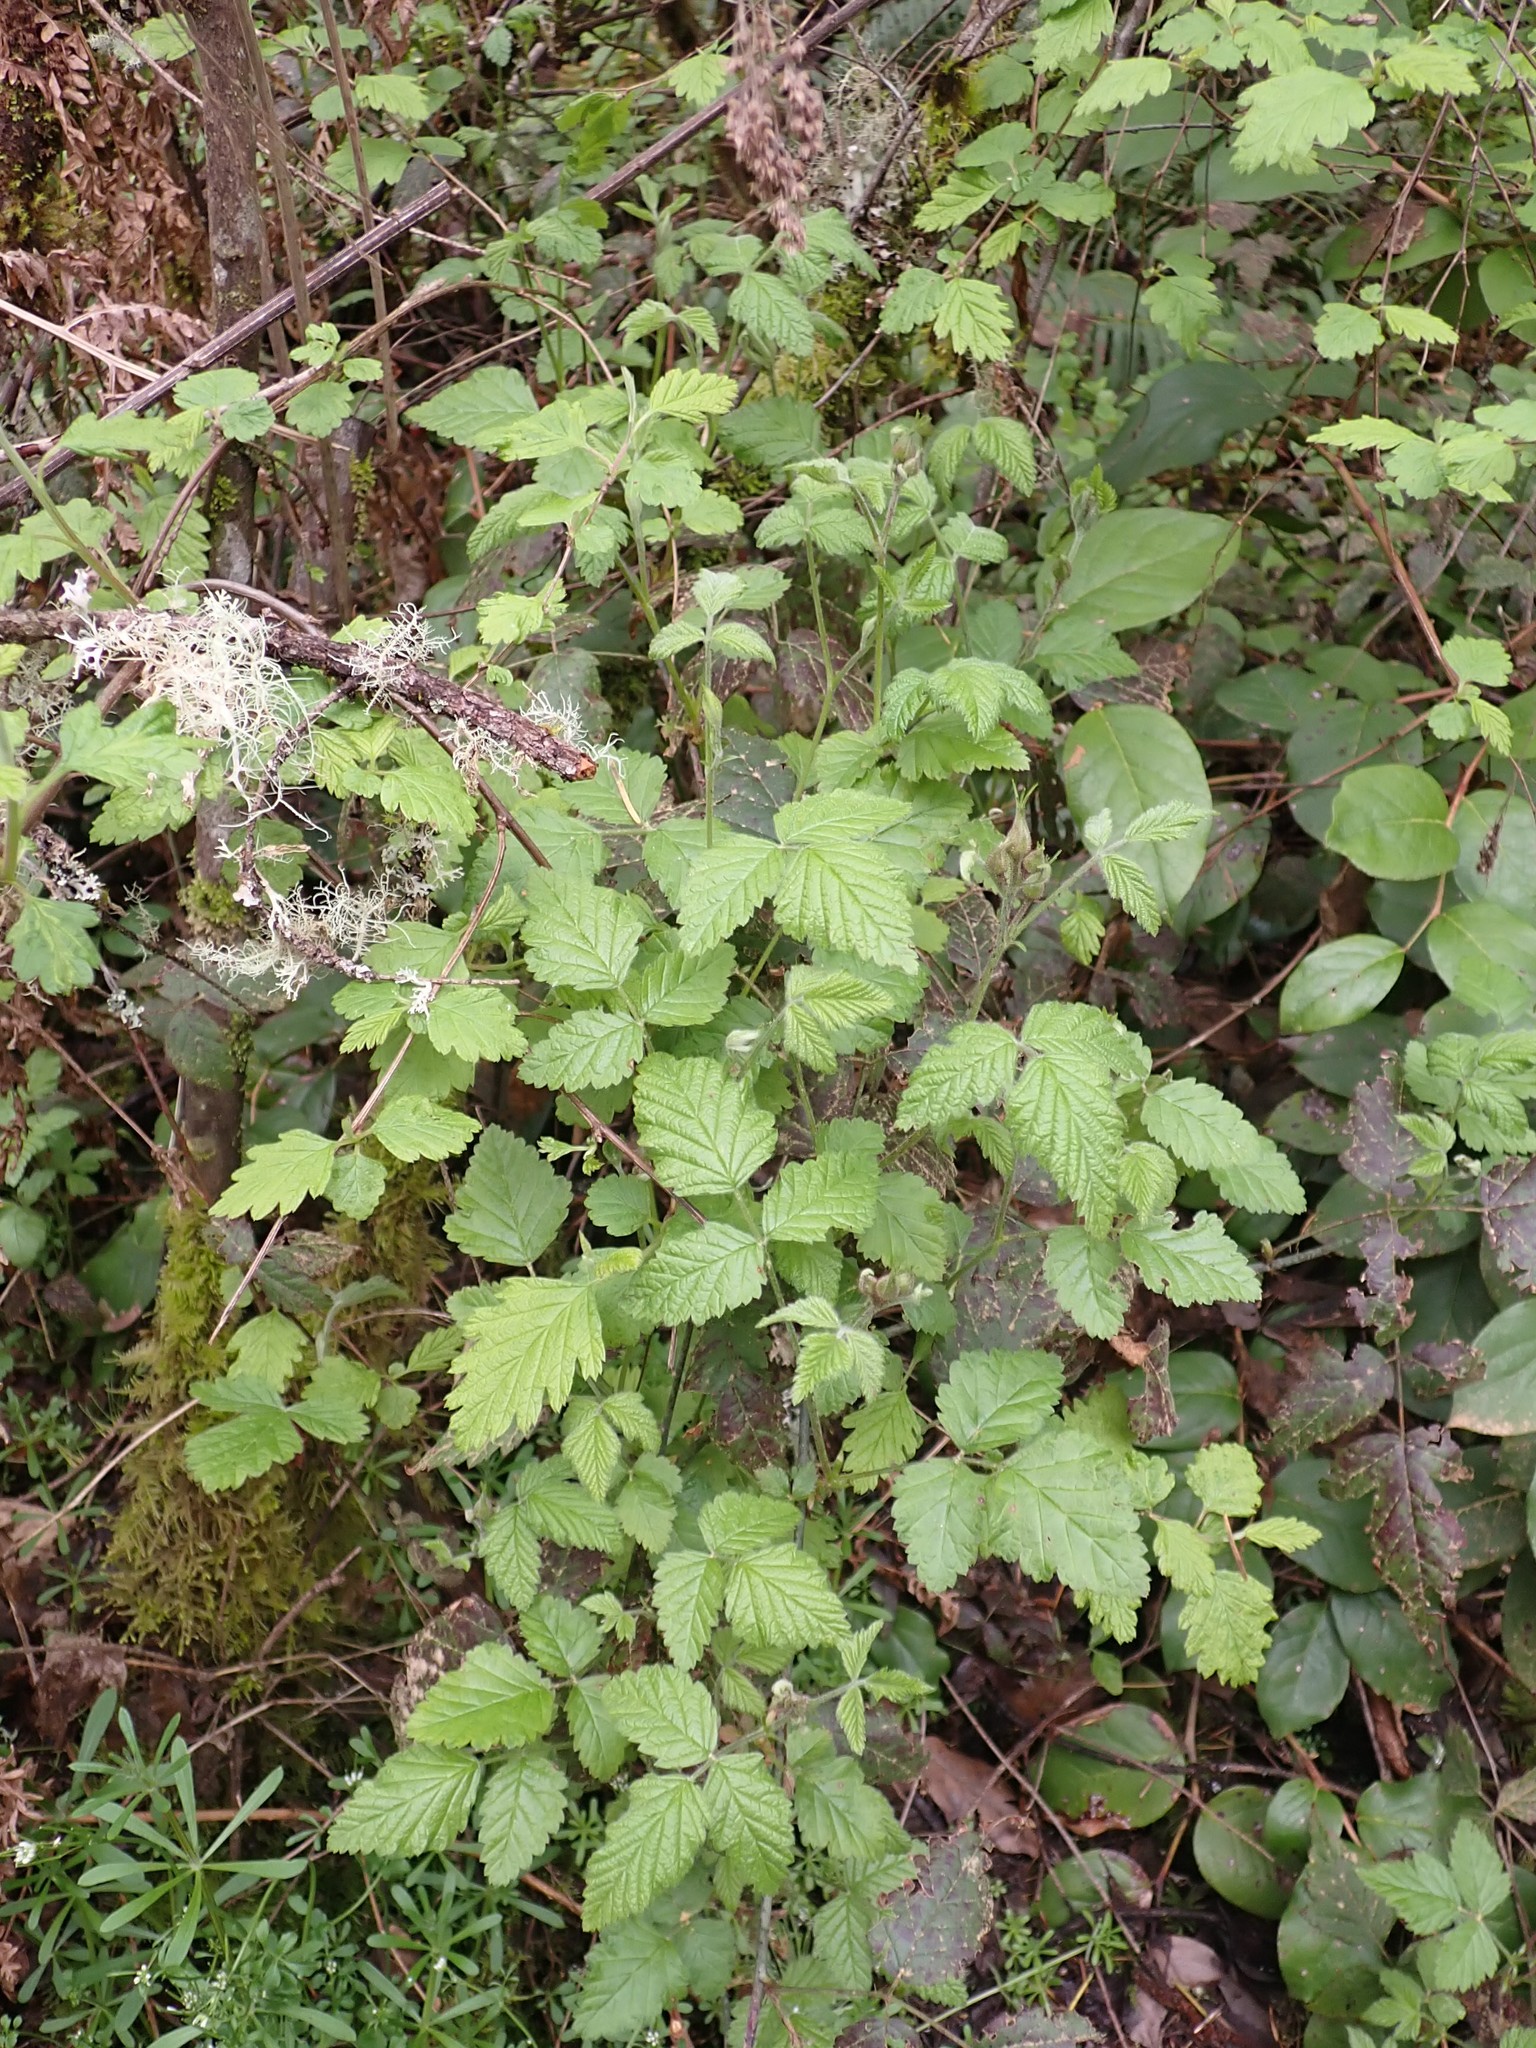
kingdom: Plantae
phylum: Tracheophyta
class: Magnoliopsida
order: Rosales
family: Rosaceae
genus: Holodiscus
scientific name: Holodiscus discolor
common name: Oceanspray
